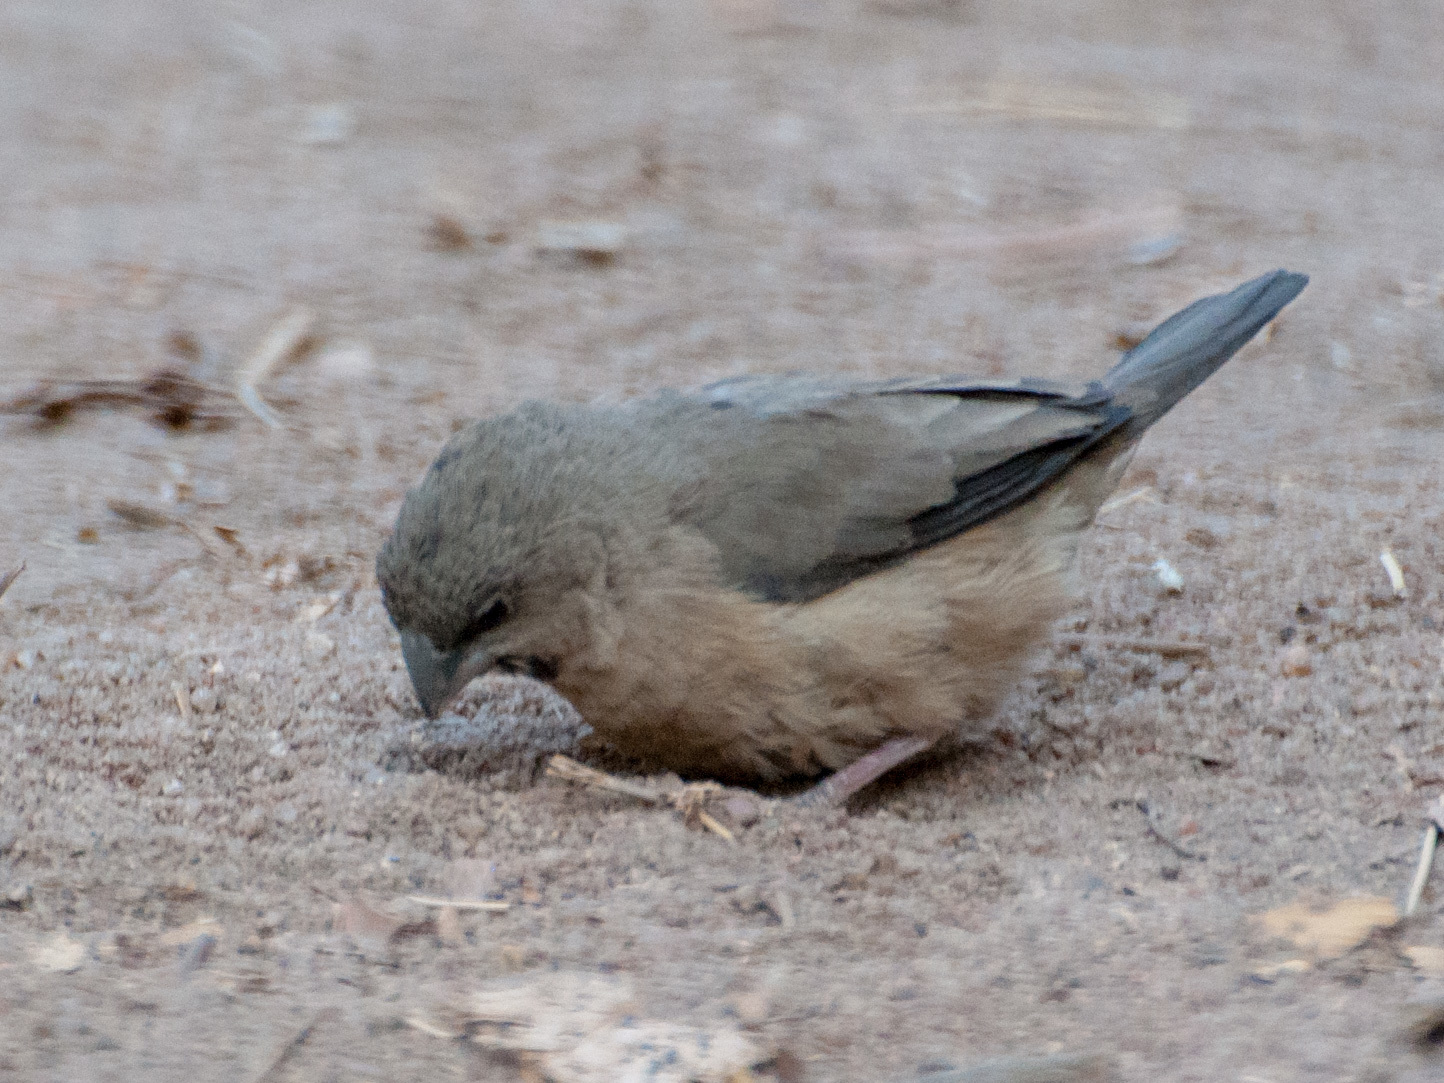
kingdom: Animalia
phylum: Chordata
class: Aves
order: Passeriformes
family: Estrildidae
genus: Lemuresthes
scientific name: Lemuresthes nana
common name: Madagascar mannikin
